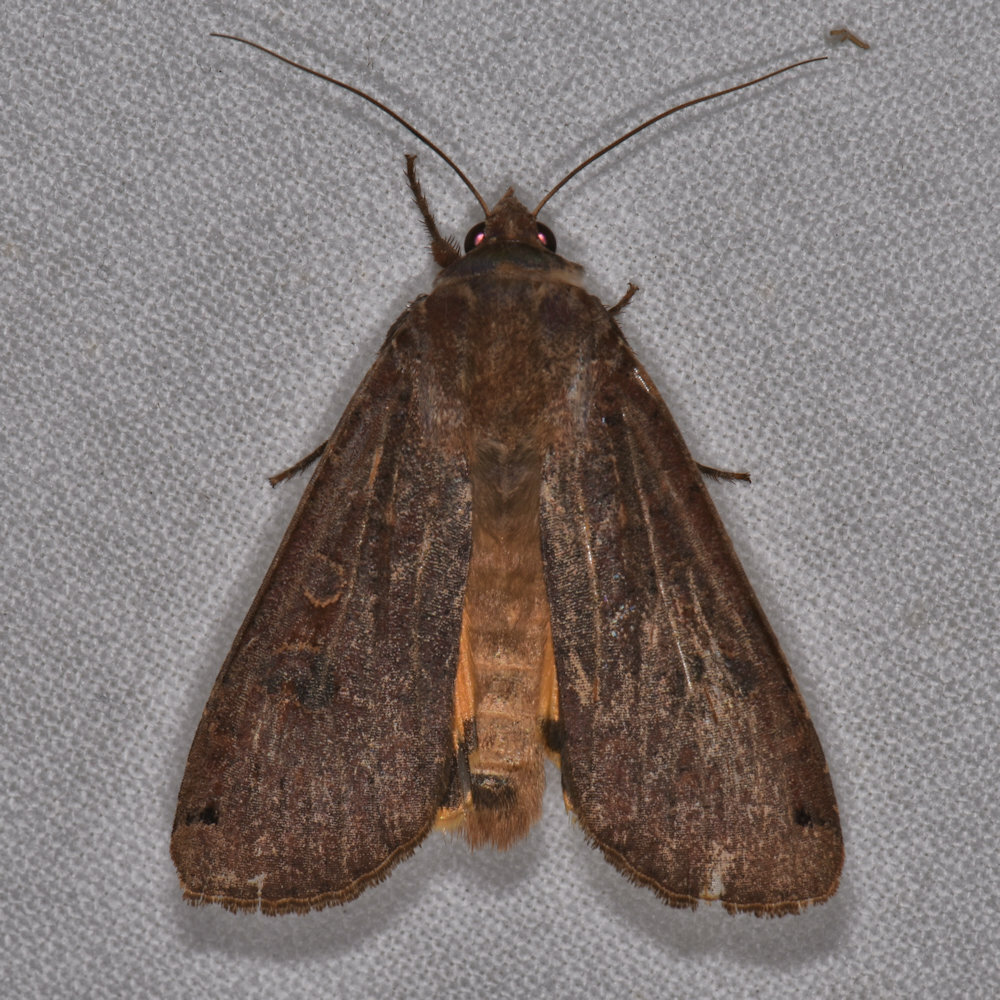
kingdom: Animalia
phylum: Arthropoda
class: Insecta
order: Lepidoptera
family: Noctuidae
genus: Noctua
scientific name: Noctua pronuba
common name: Large yellow underwing
